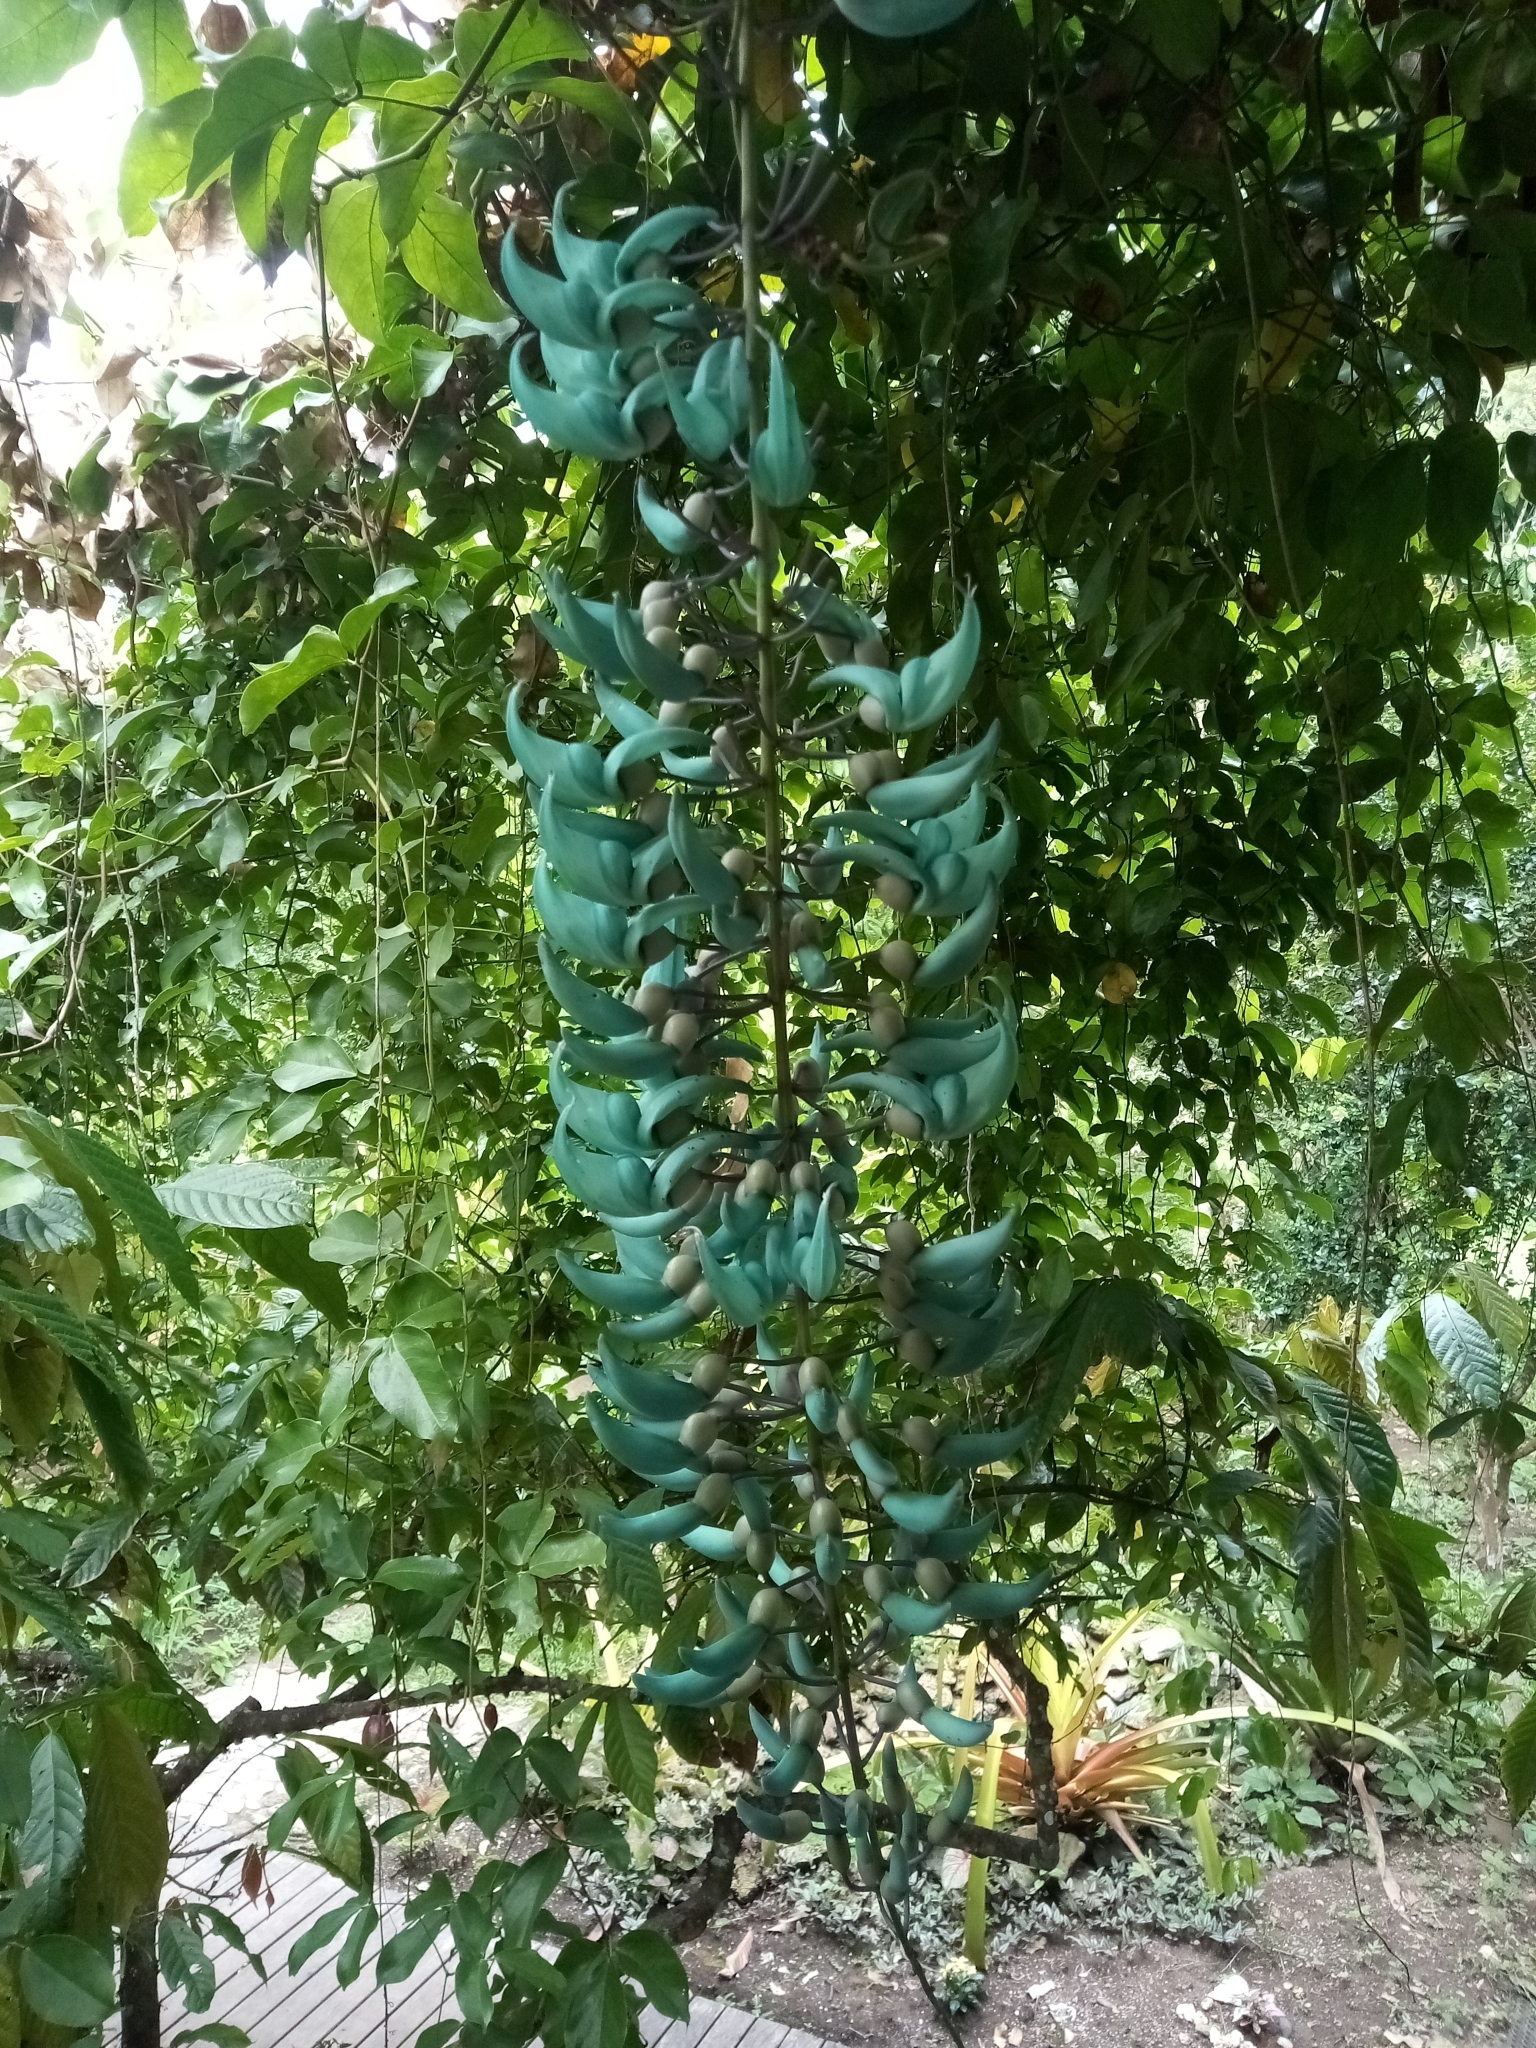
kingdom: Plantae
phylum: Tracheophyta
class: Magnoliopsida
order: Fabales
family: Fabaceae
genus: Strongylodon
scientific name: Strongylodon macrobotrys
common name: Jadevine
